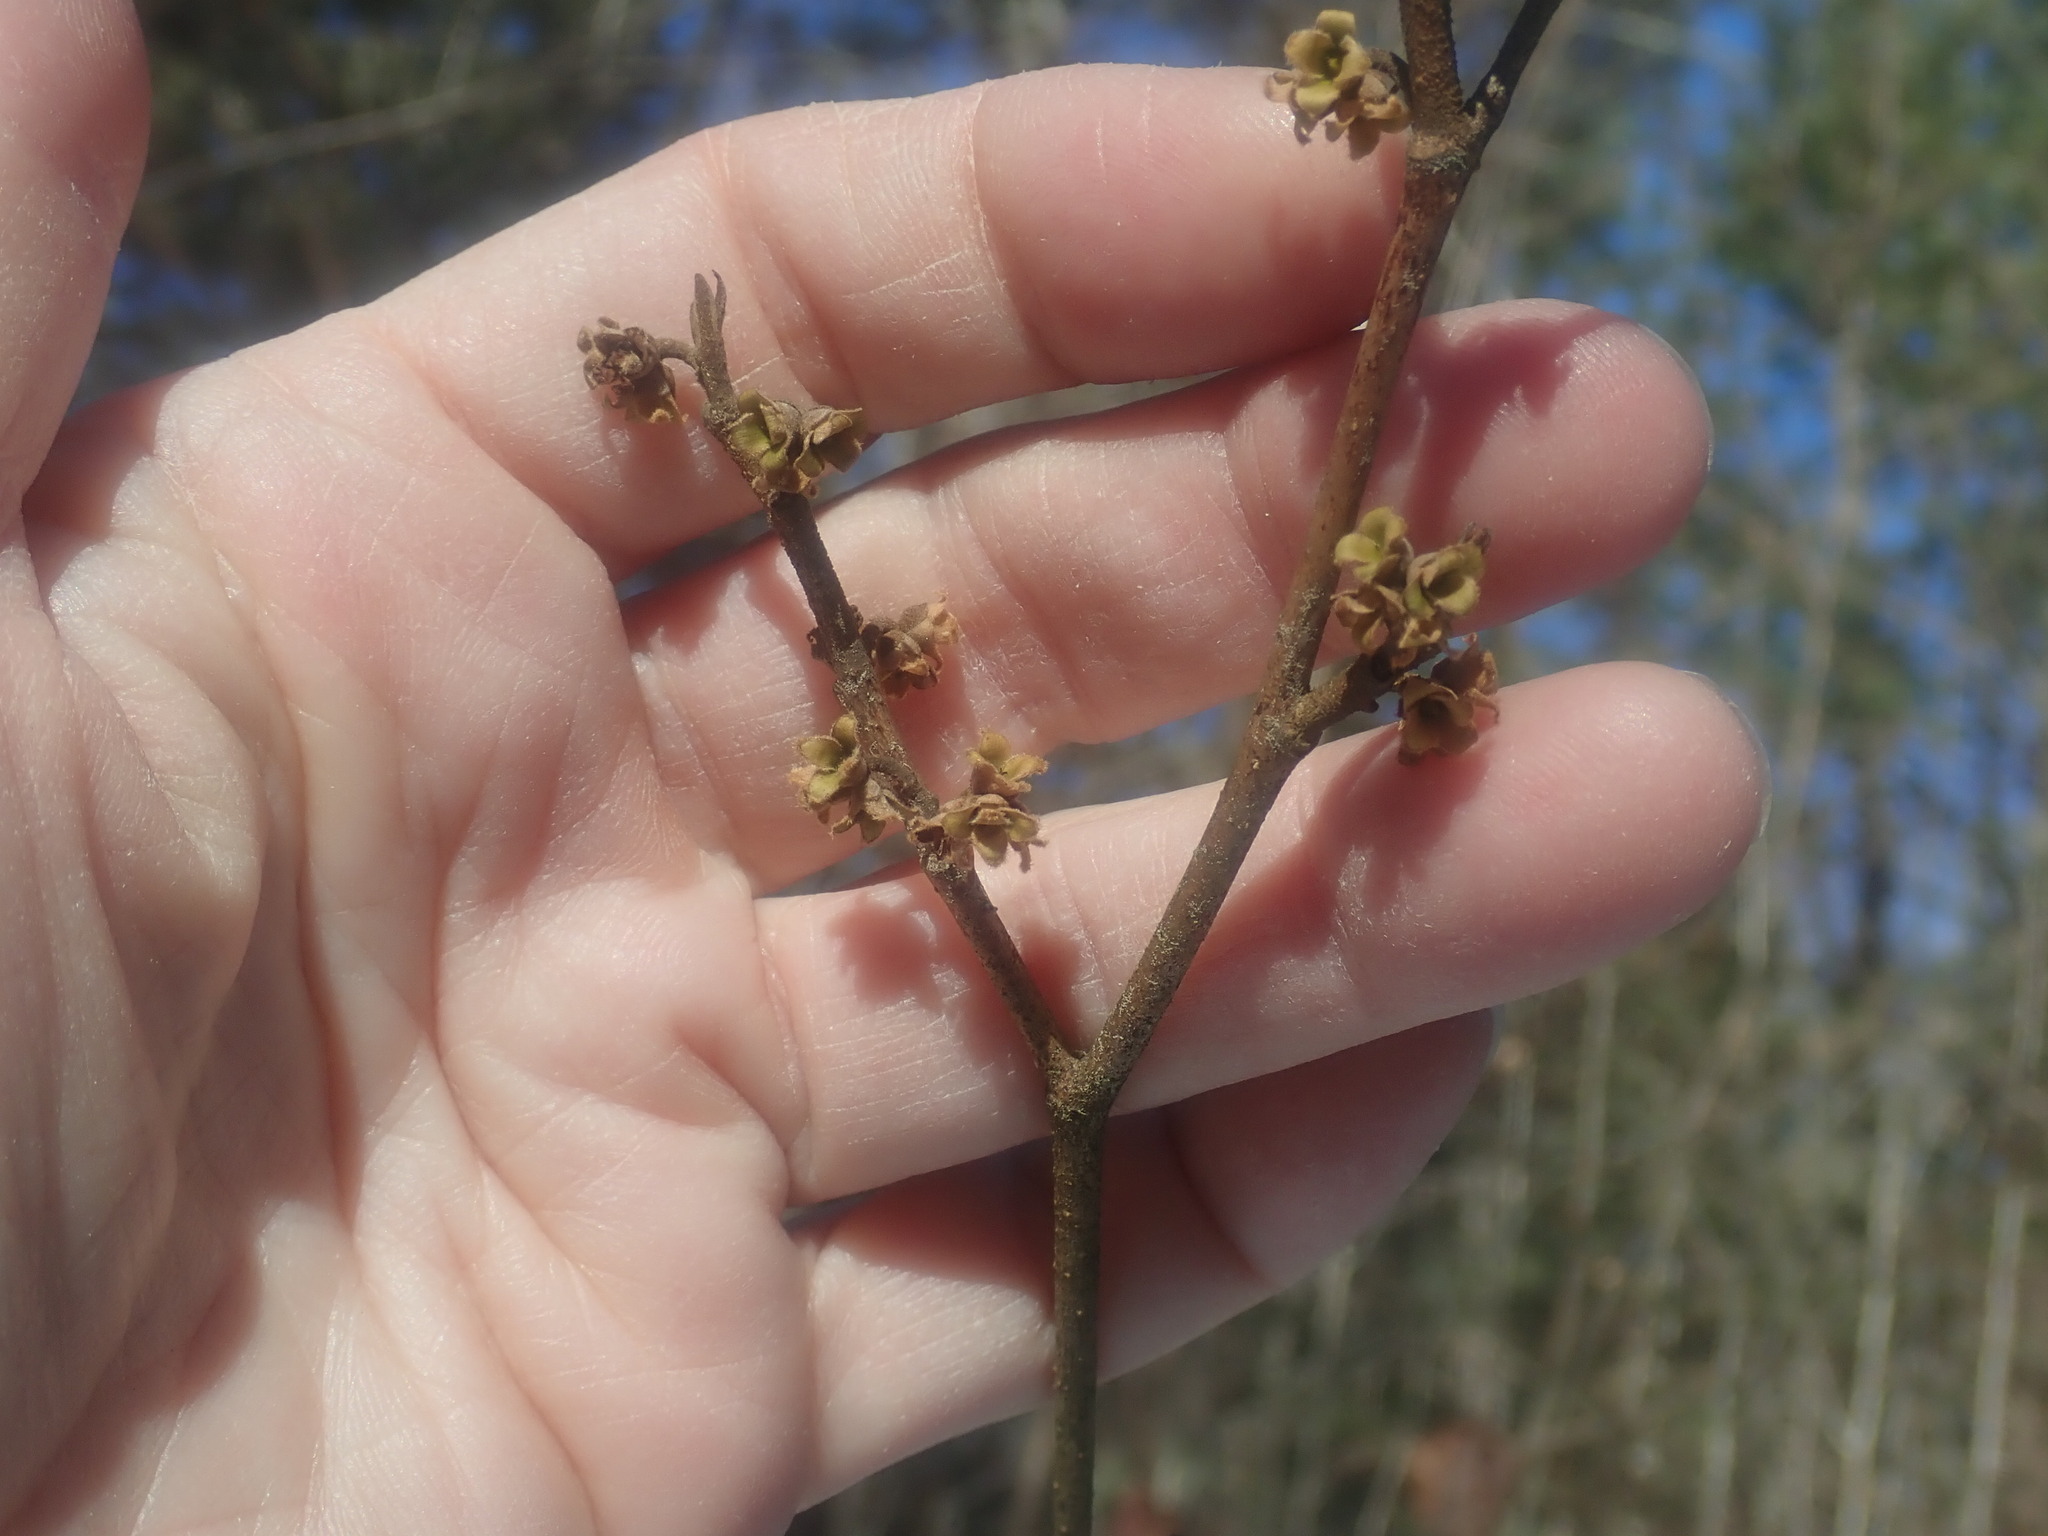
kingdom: Plantae
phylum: Tracheophyta
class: Magnoliopsida
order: Saxifragales
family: Hamamelidaceae
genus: Hamamelis
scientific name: Hamamelis virginiana
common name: Witch-hazel
